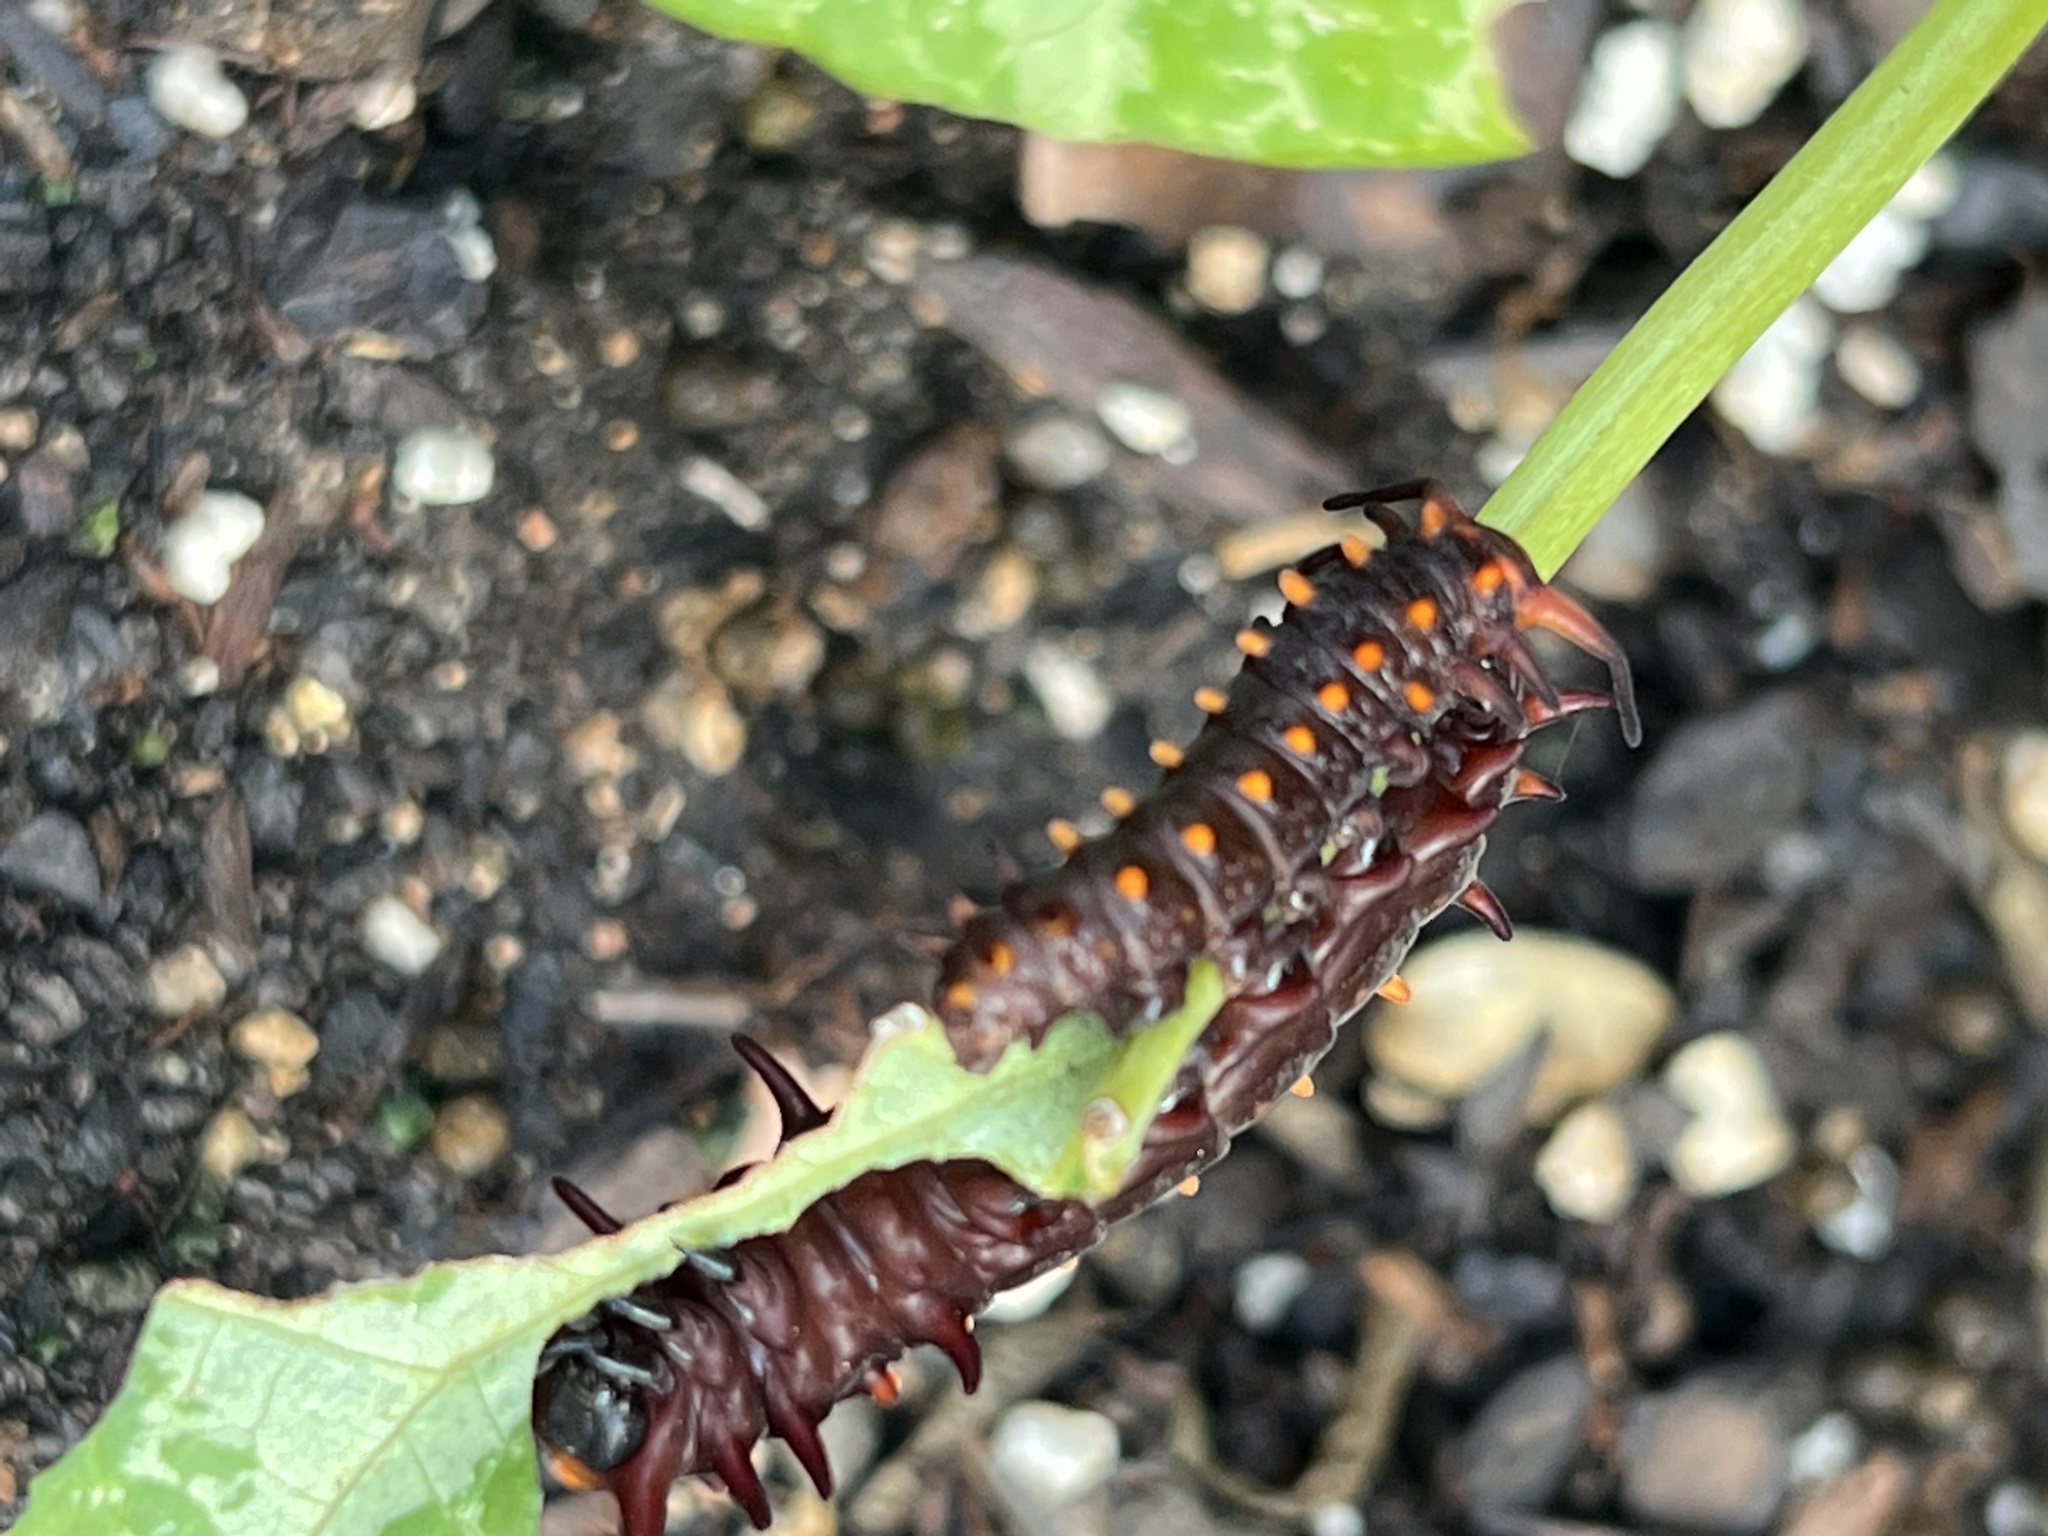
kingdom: Animalia
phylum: Arthropoda
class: Insecta
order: Lepidoptera
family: Papilionidae
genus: Battus
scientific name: Battus philenor
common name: Pipevine swallowtail
